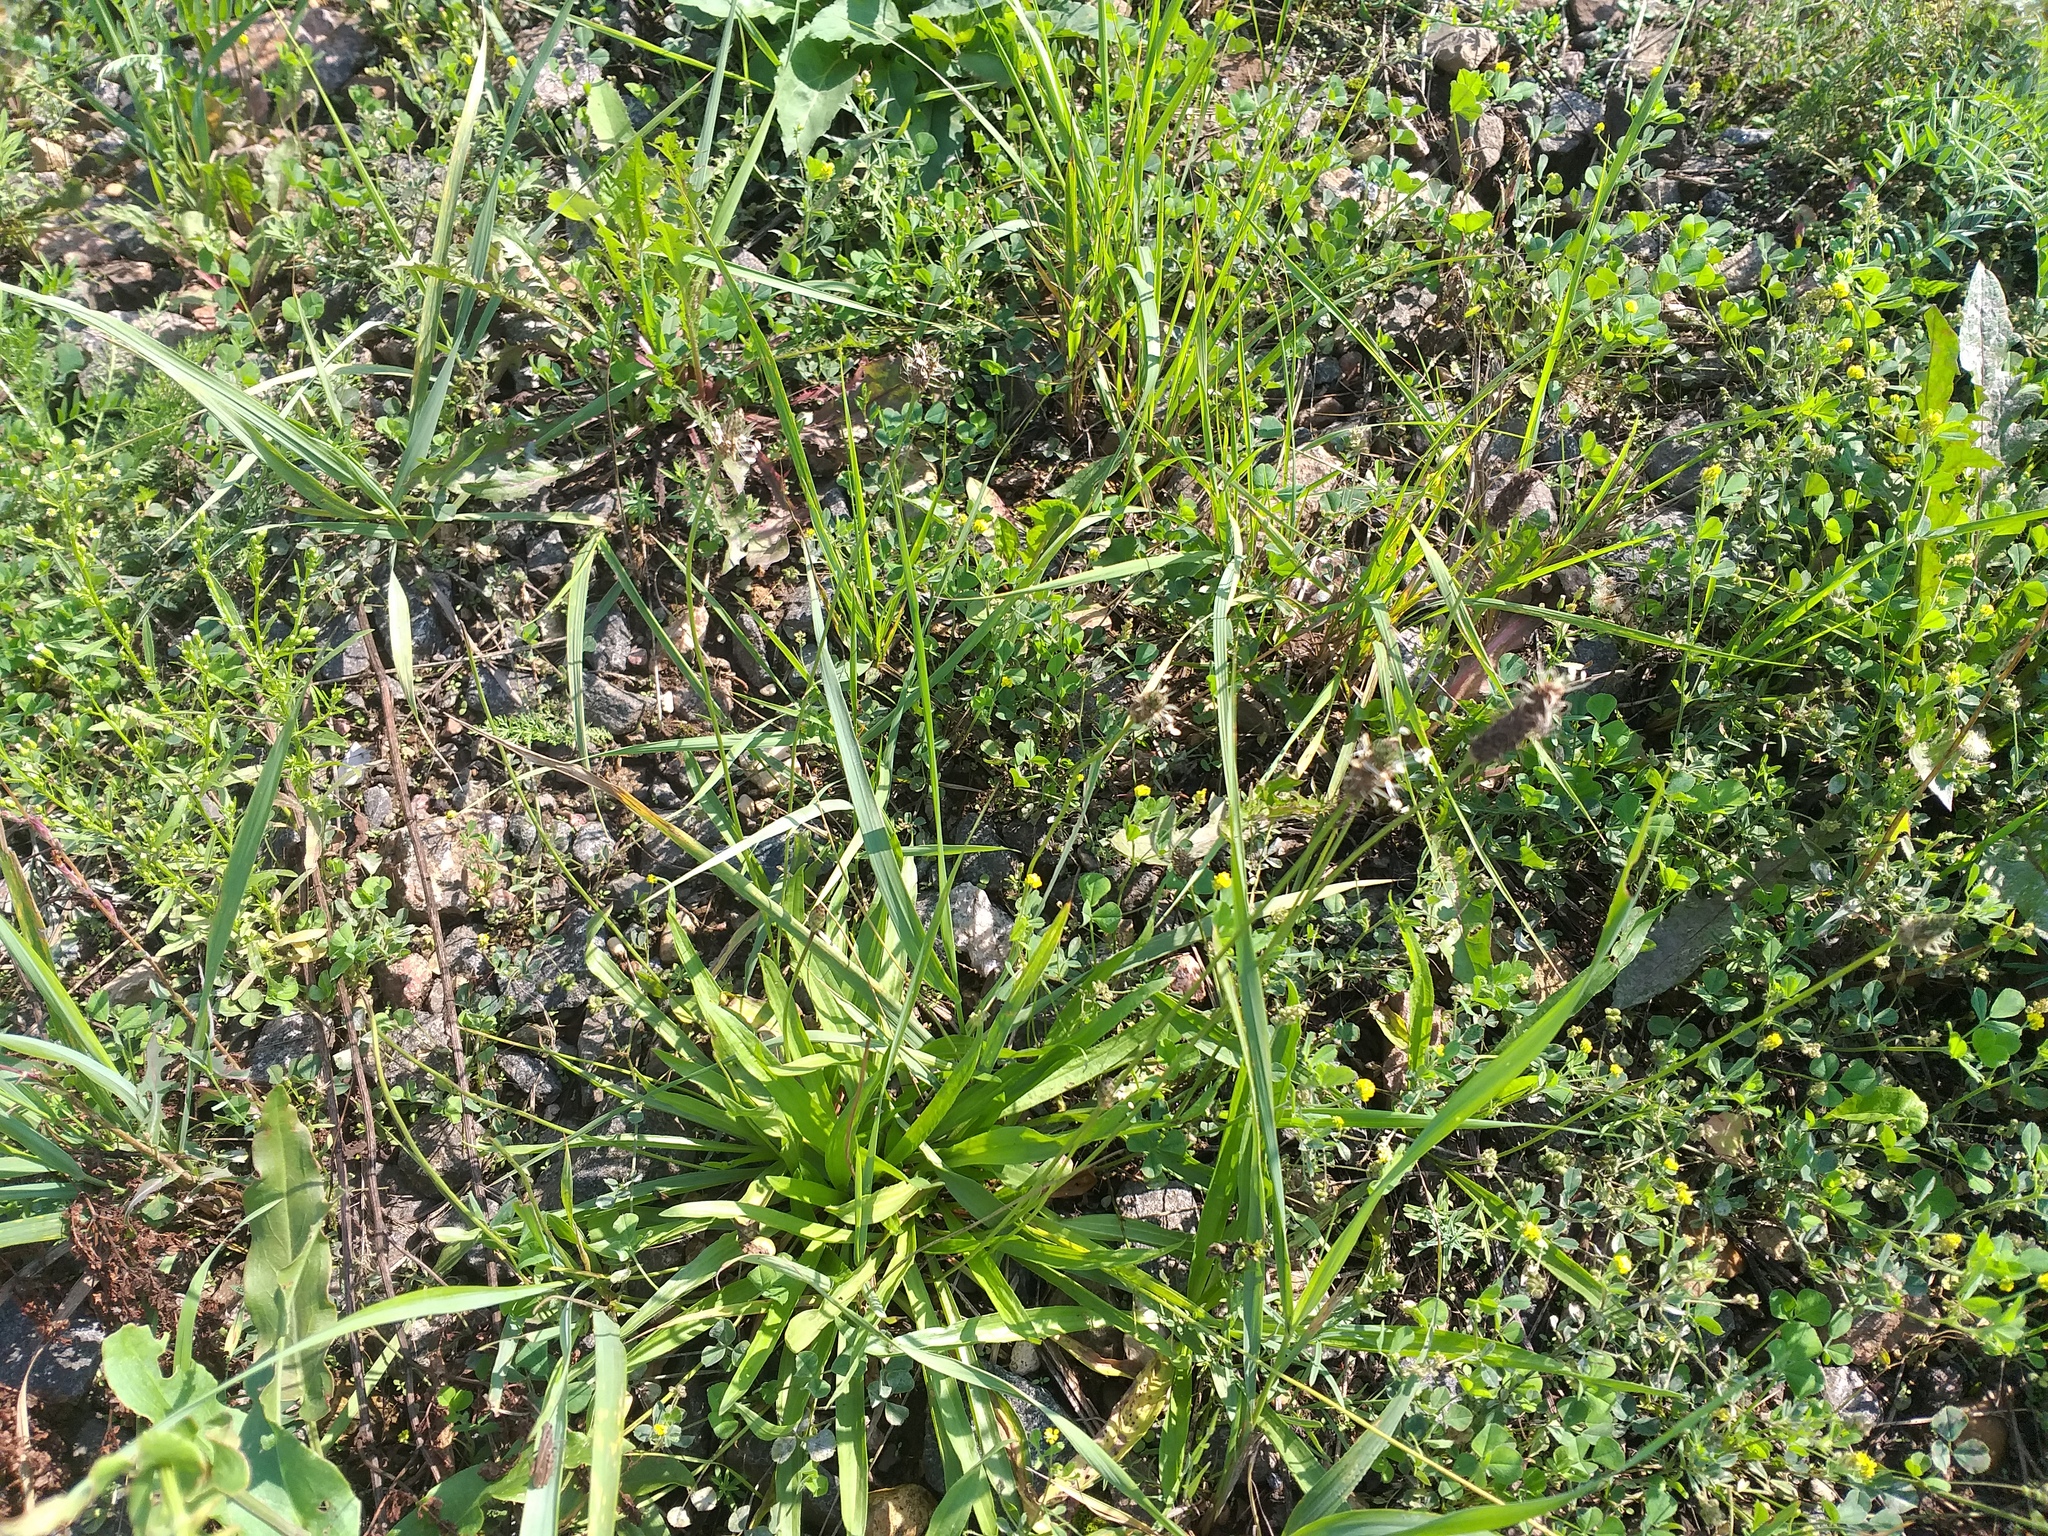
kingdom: Plantae
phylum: Tracheophyta
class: Magnoliopsida
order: Lamiales
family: Plantaginaceae
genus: Plantago
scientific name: Plantago lanceolata
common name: Ribwort plantain
